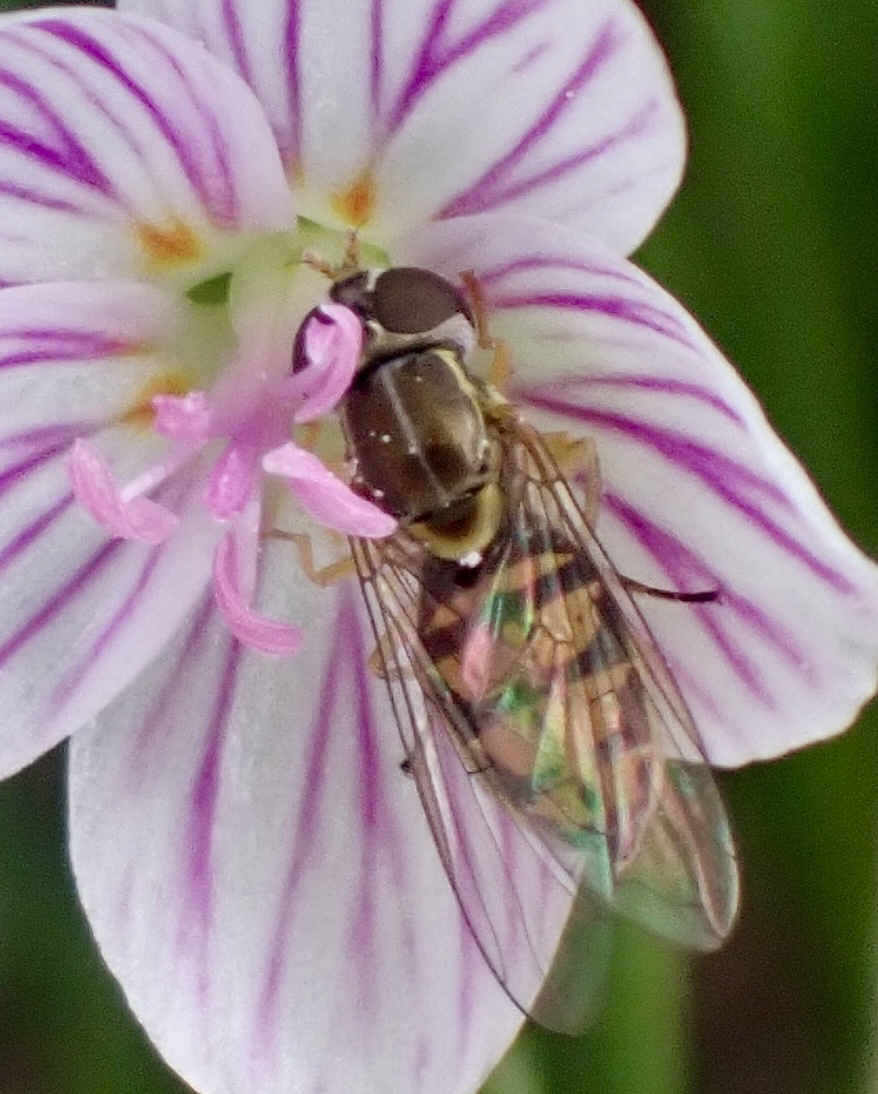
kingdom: Animalia
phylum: Arthropoda
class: Insecta
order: Diptera
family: Syrphidae
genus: Toxomerus
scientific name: Toxomerus marginatus
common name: Syrphid fly
